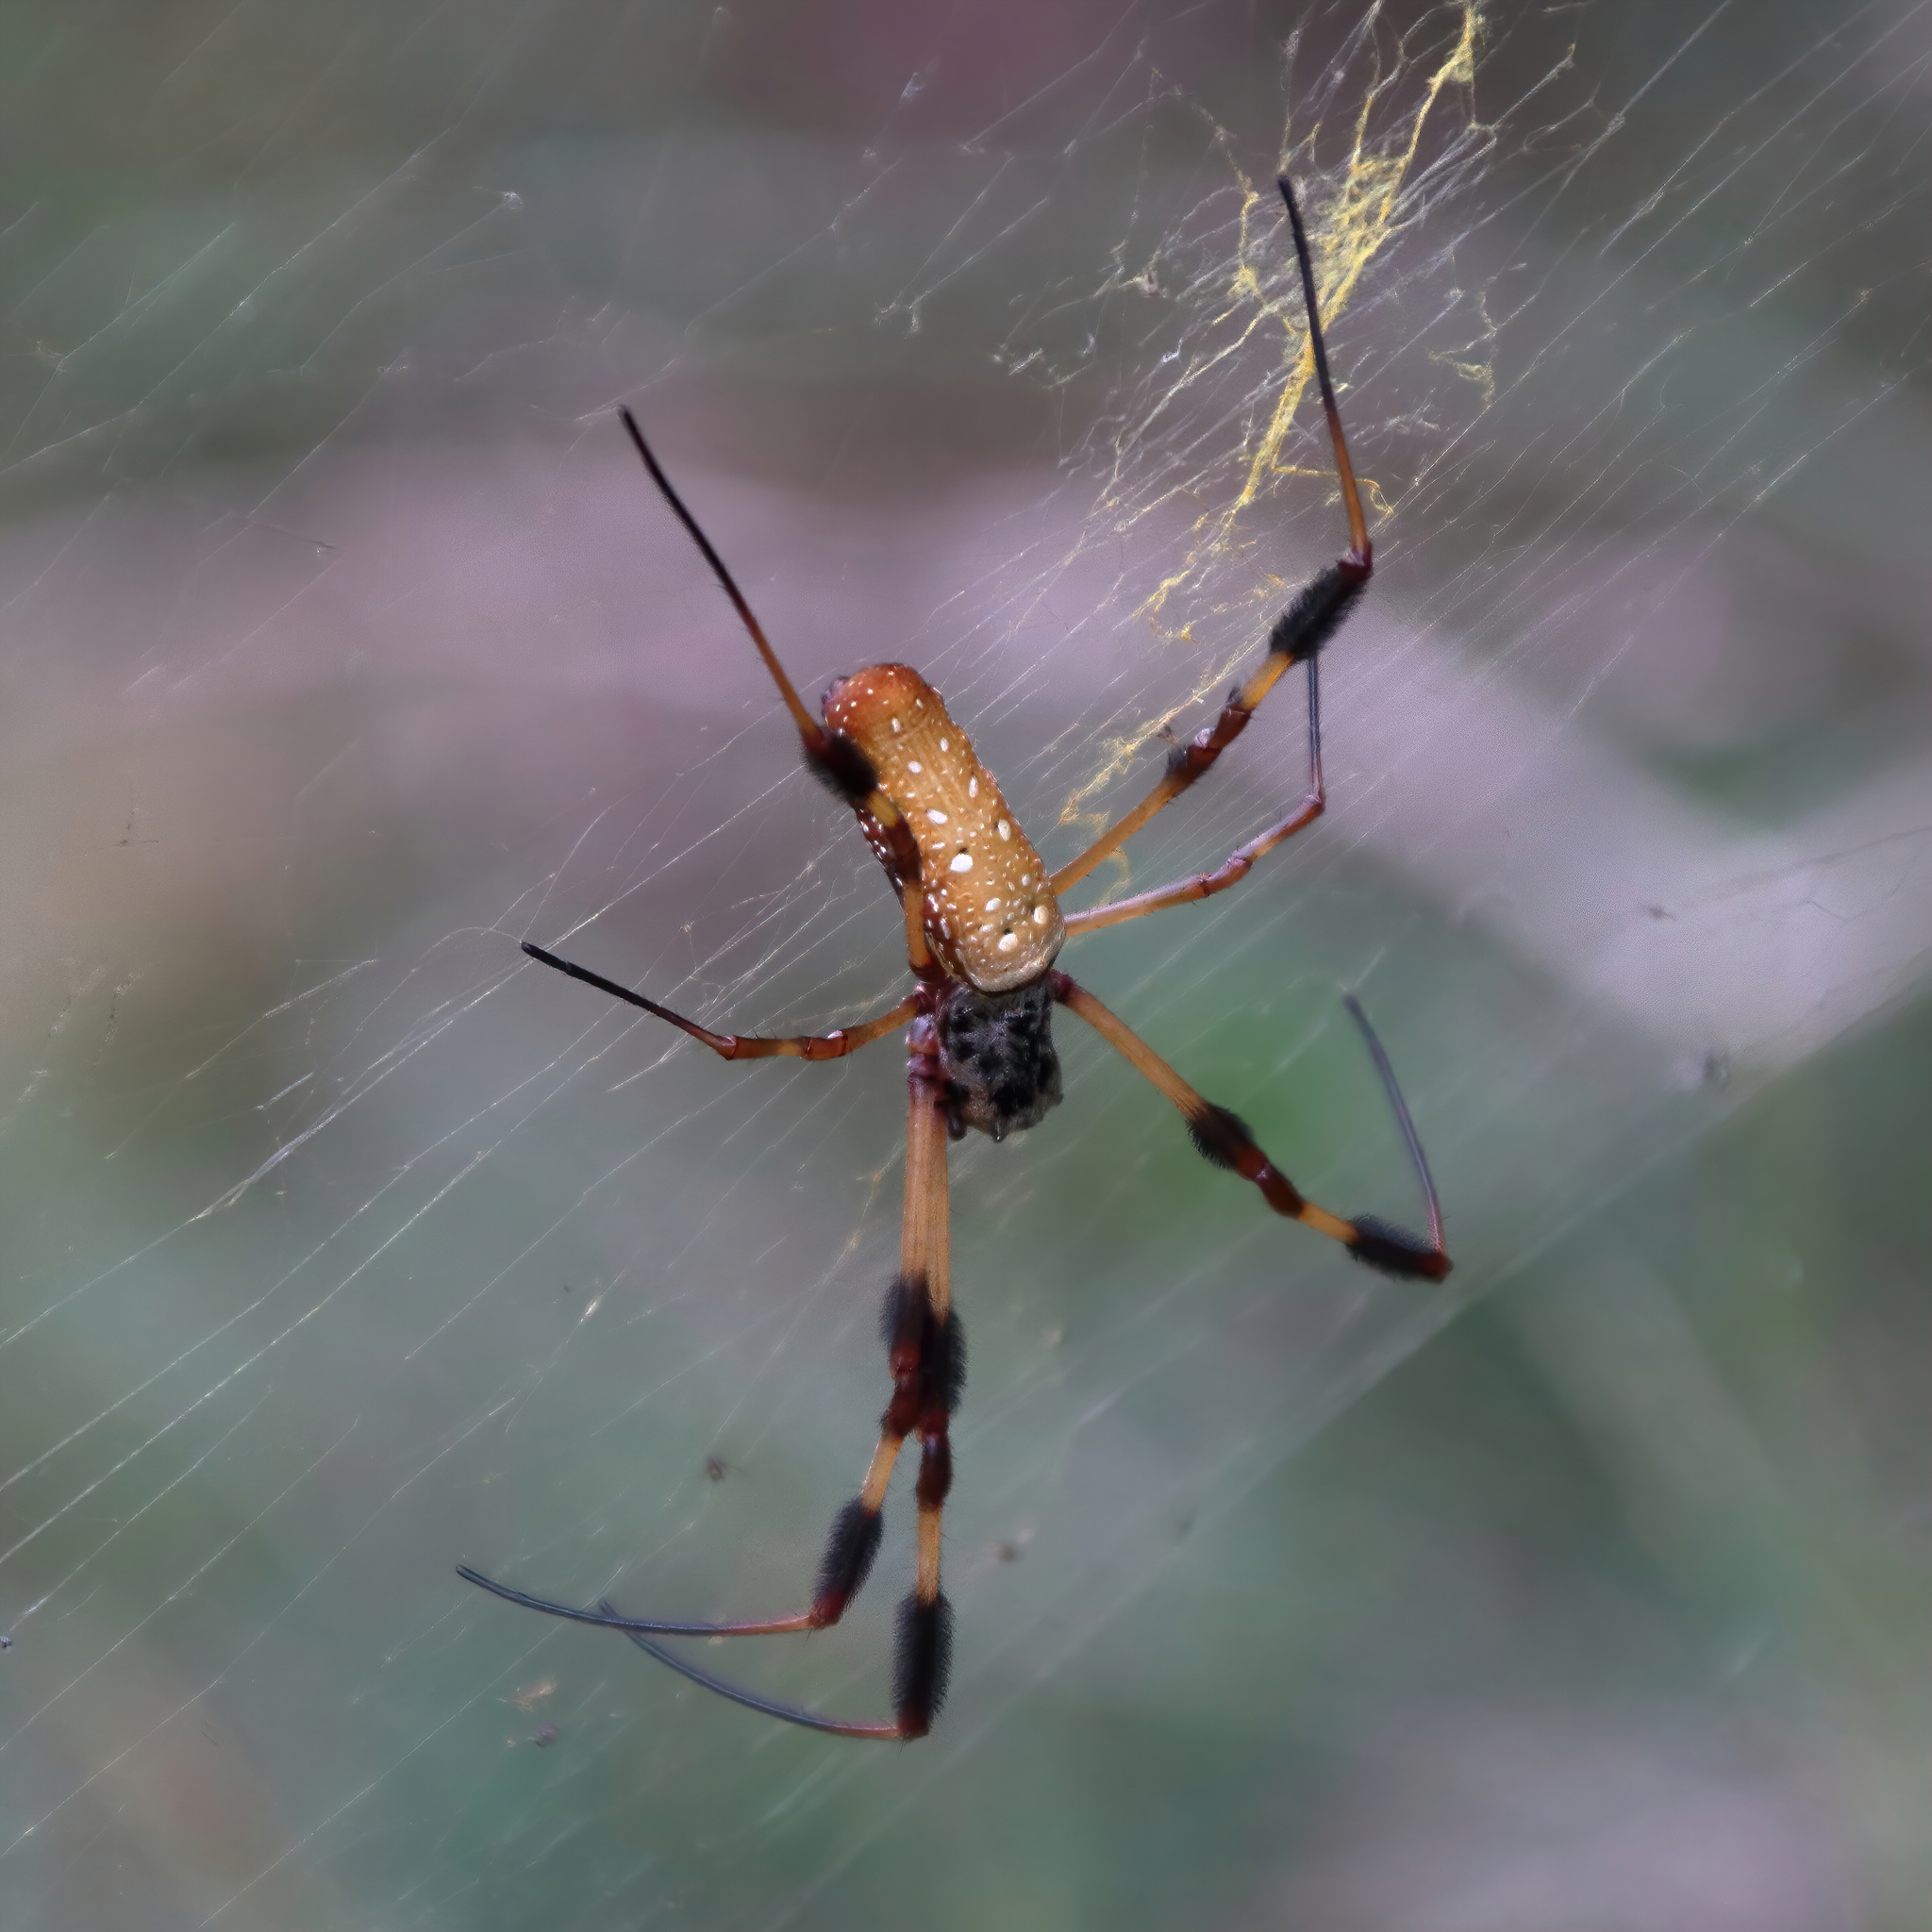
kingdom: Animalia
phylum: Arthropoda
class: Arachnida
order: Araneae
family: Araneidae
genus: Trichonephila
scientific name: Trichonephila clavipes
